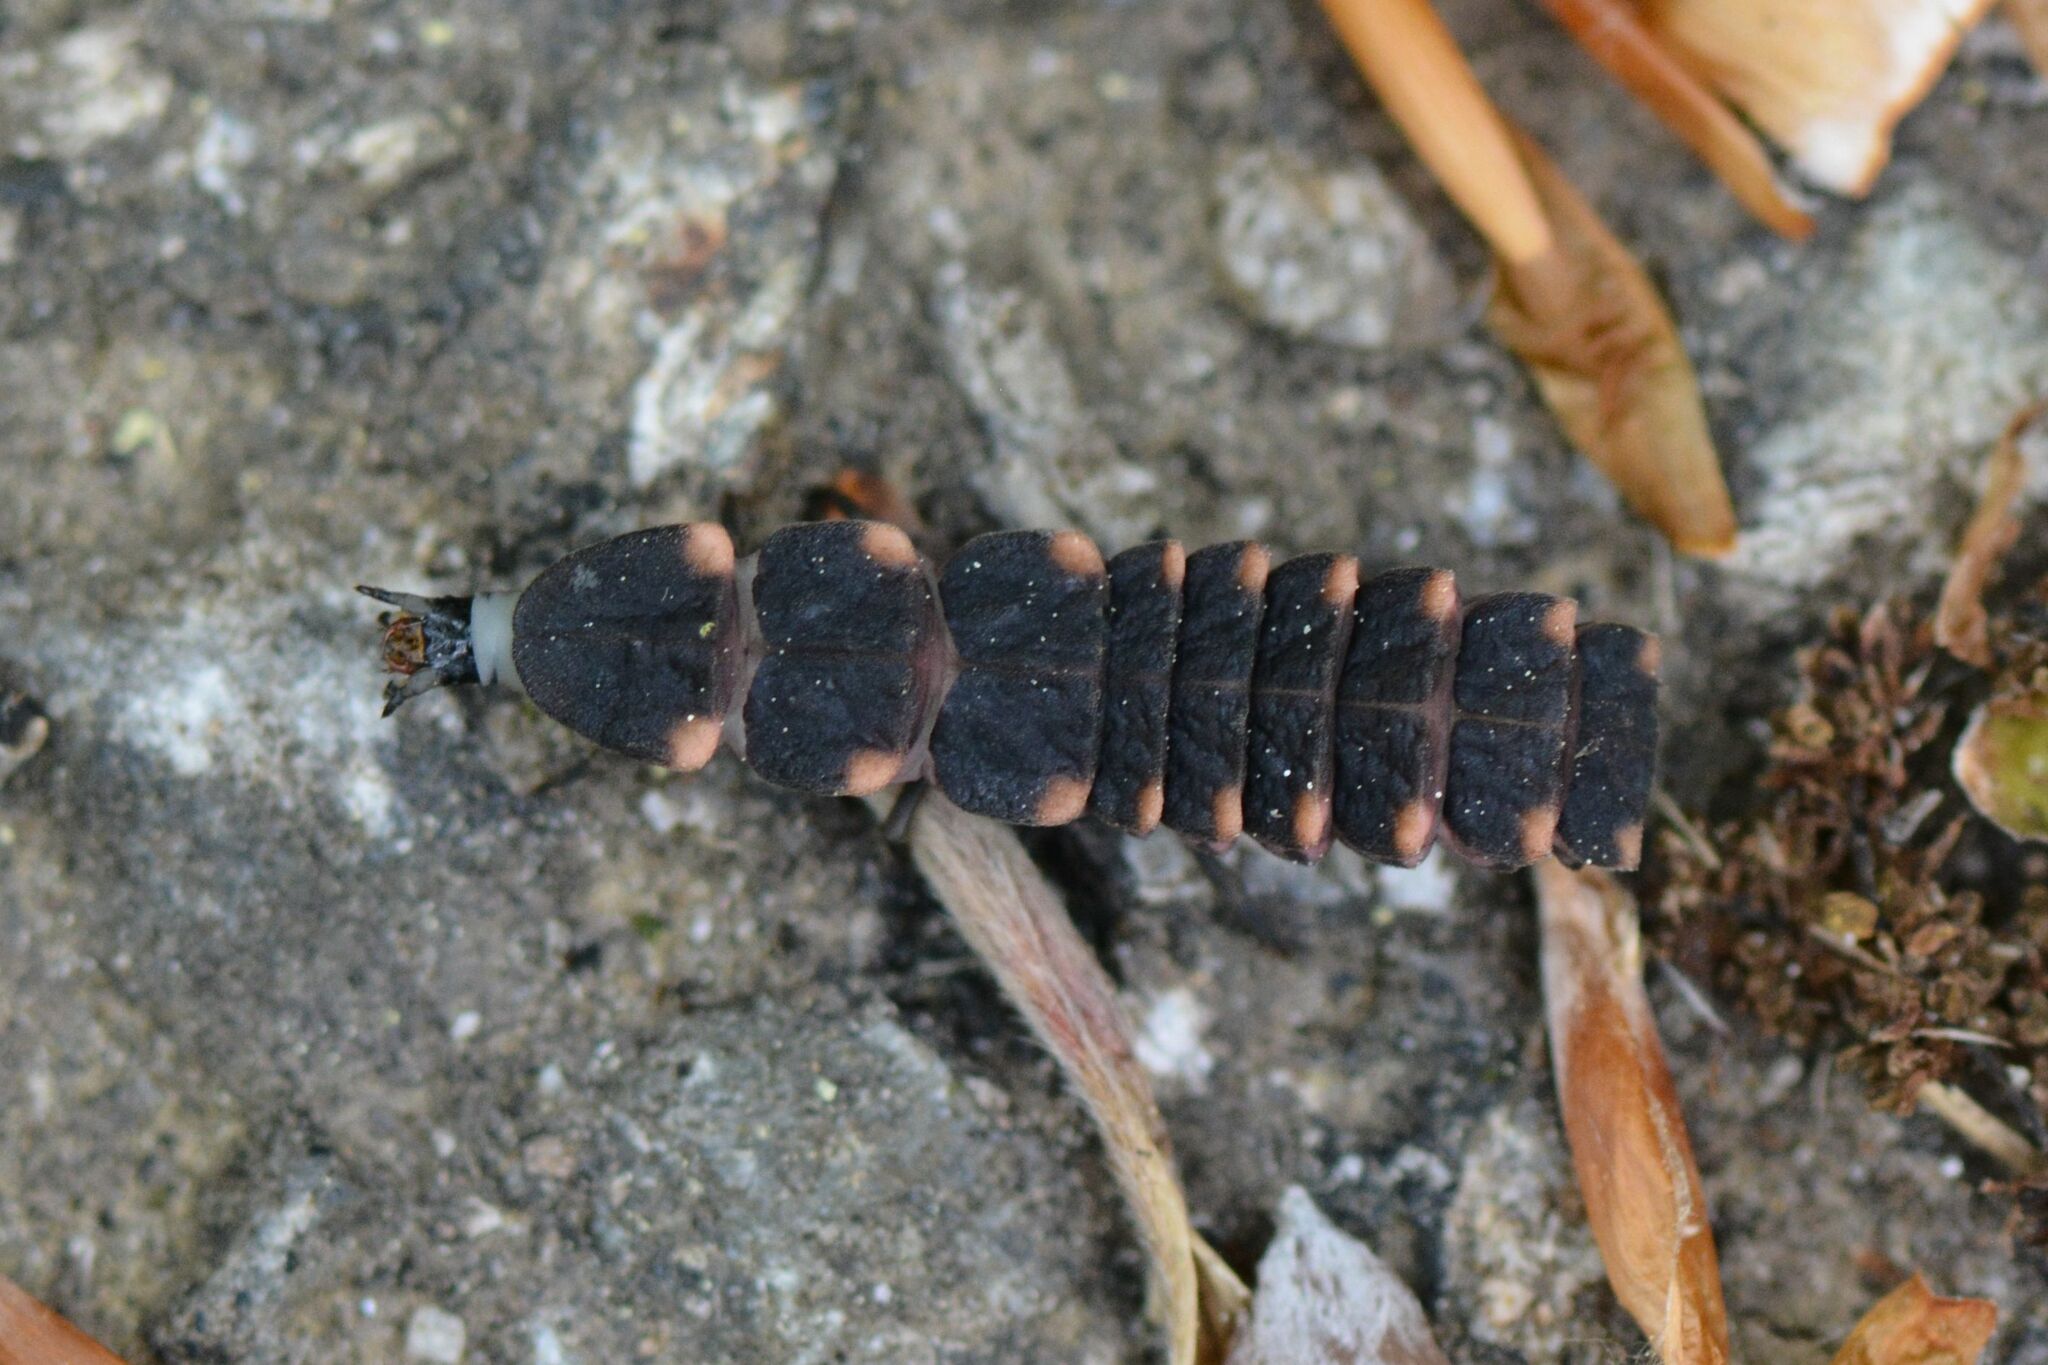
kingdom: Animalia
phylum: Arthropoda
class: Insecta
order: Coleoptera
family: Lampyridae
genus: Lampyris
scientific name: Lampyris noctiluca
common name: Glow-worm
